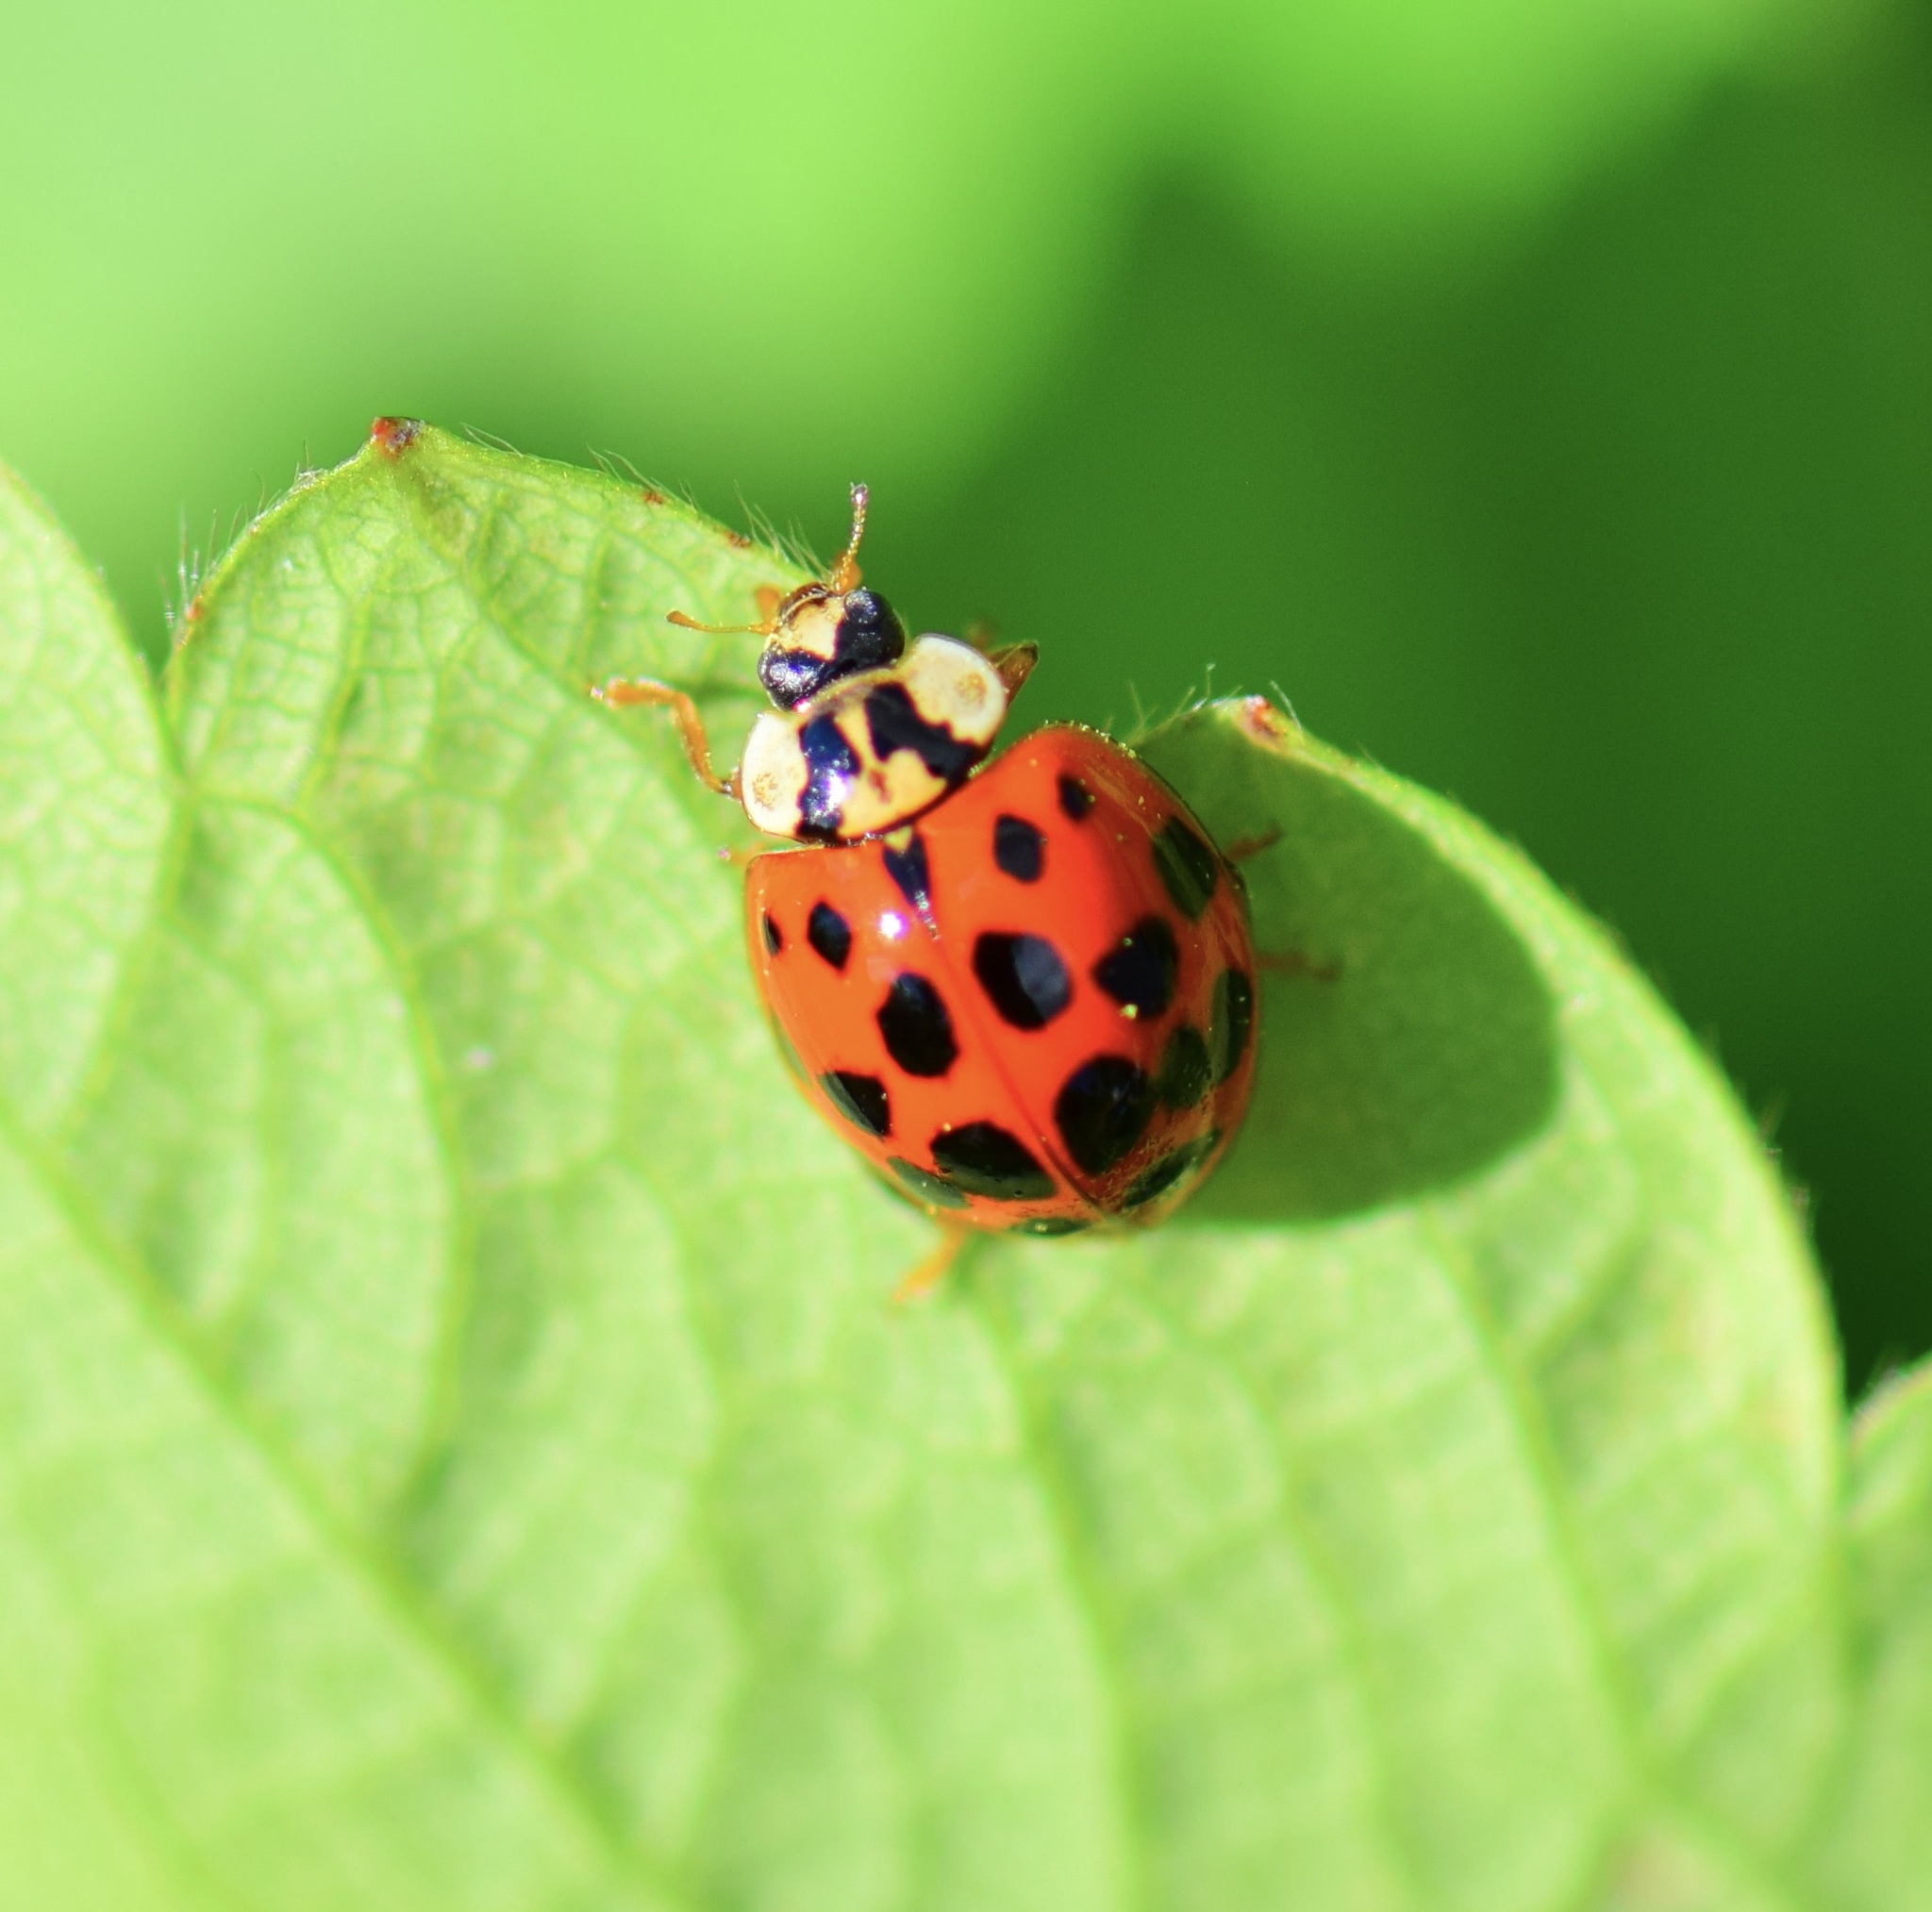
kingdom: Animalia
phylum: Arthropoda
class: Insecta
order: Coleoptera
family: Coccinellidae
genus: Harmonia
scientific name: Harmonia axyridis
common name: Harlequin ladybird
